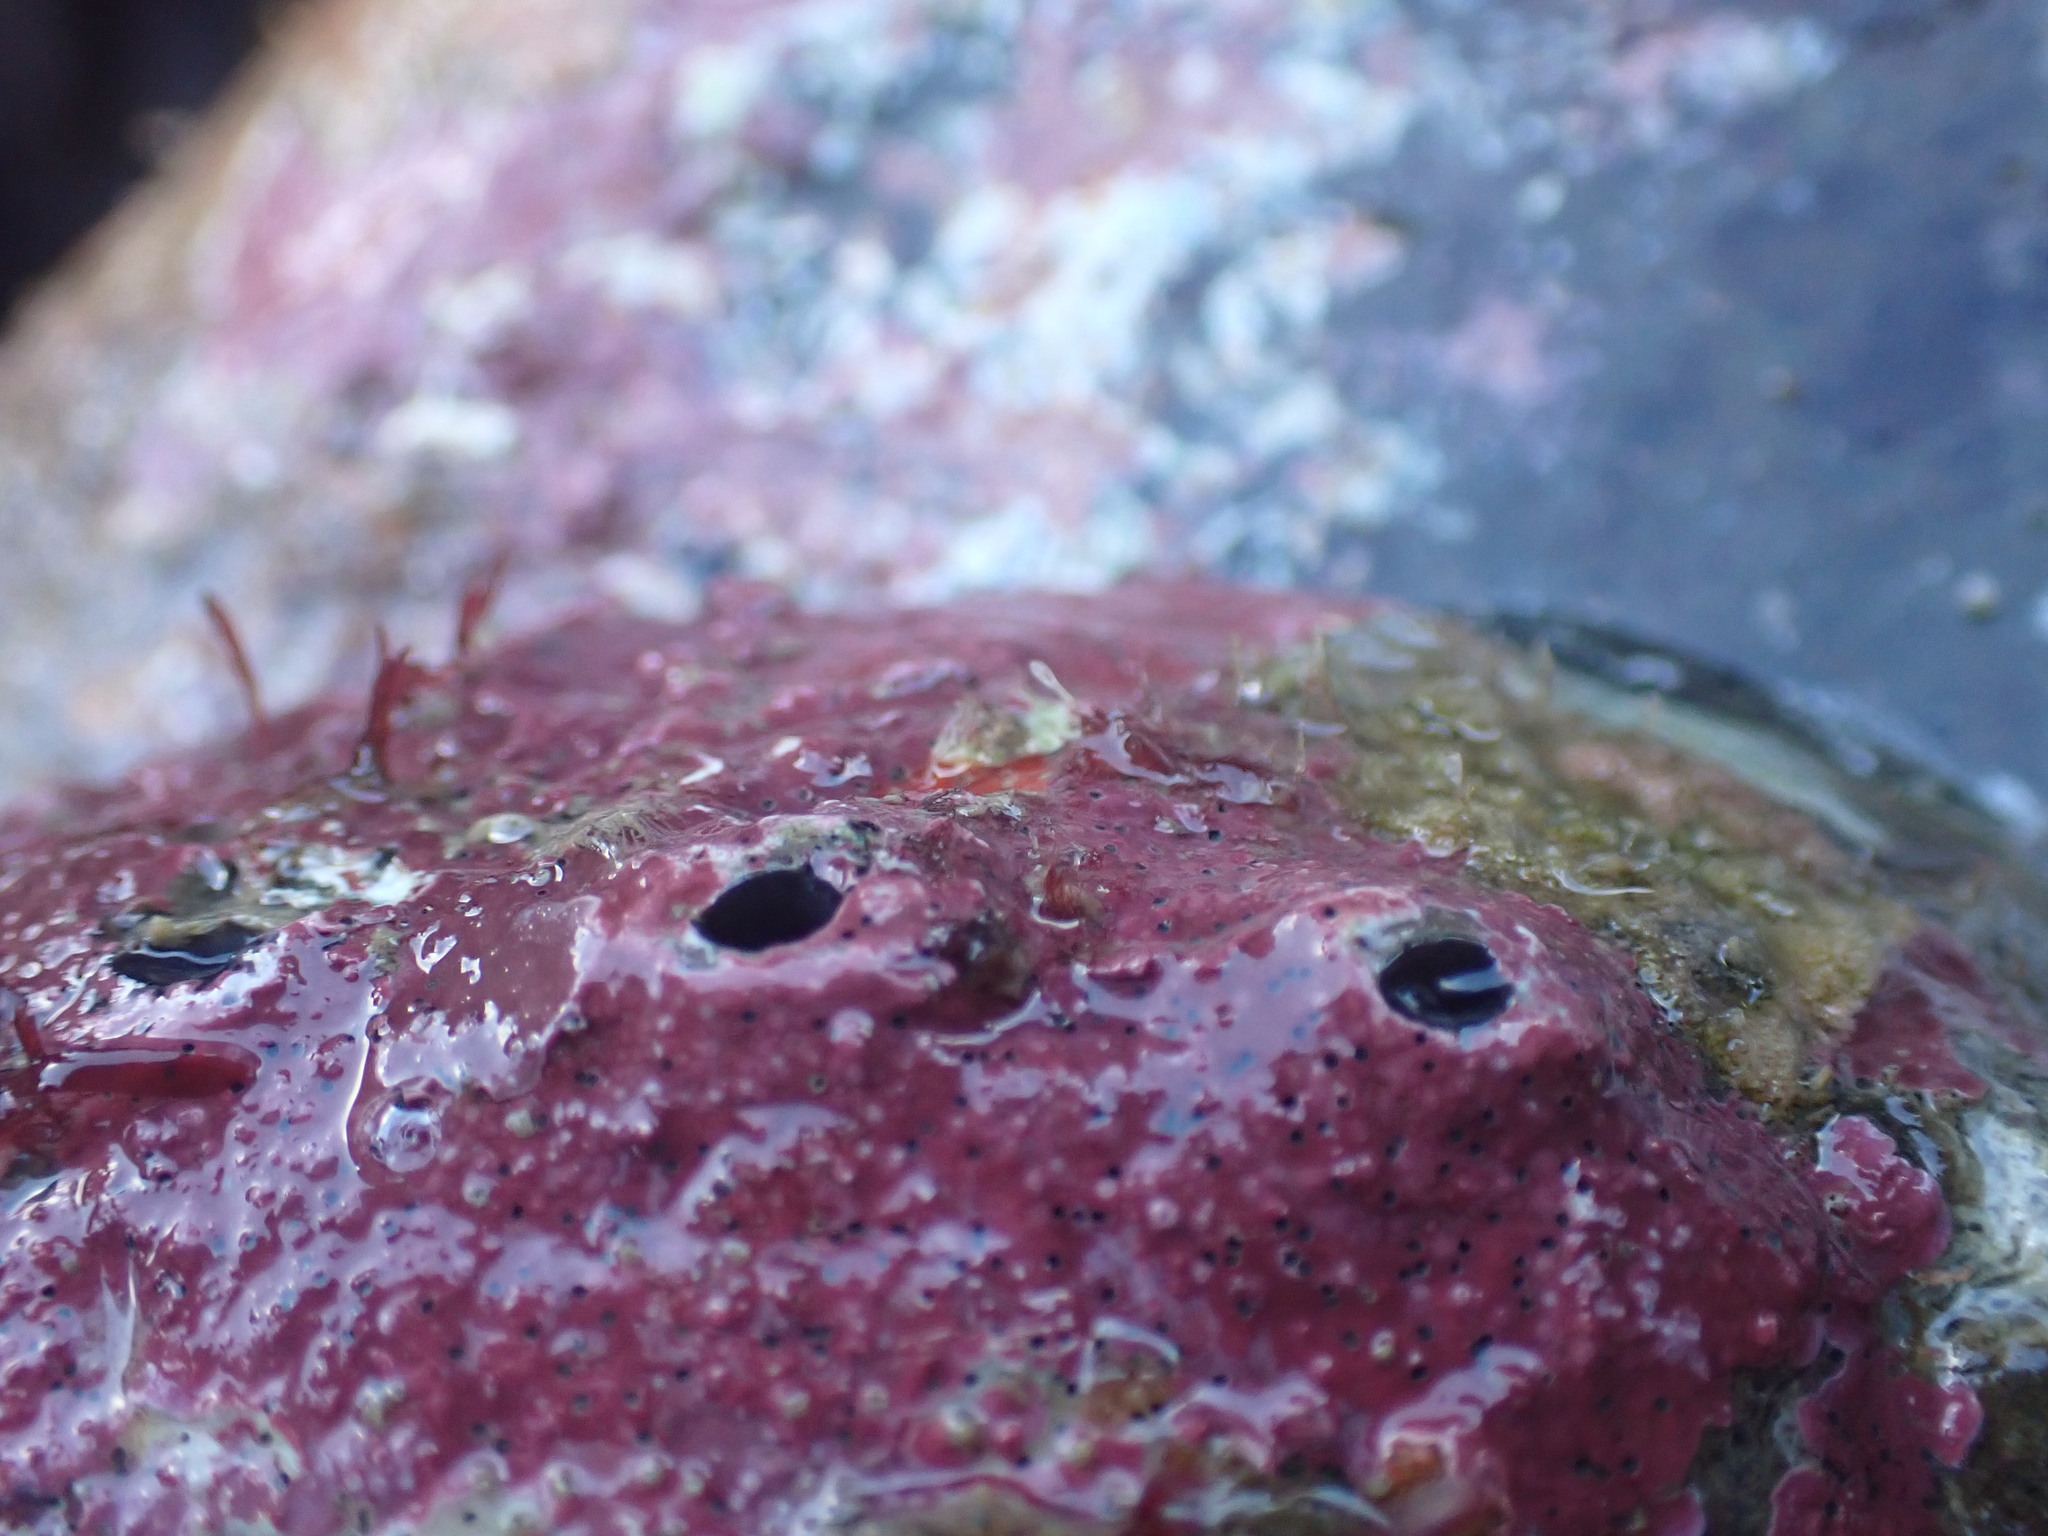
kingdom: Animalia
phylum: Mollusca
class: Gastropoda
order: Lepetellida
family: Haliotidae
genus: Haliotis
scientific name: Haliotis iris
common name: Abalone
